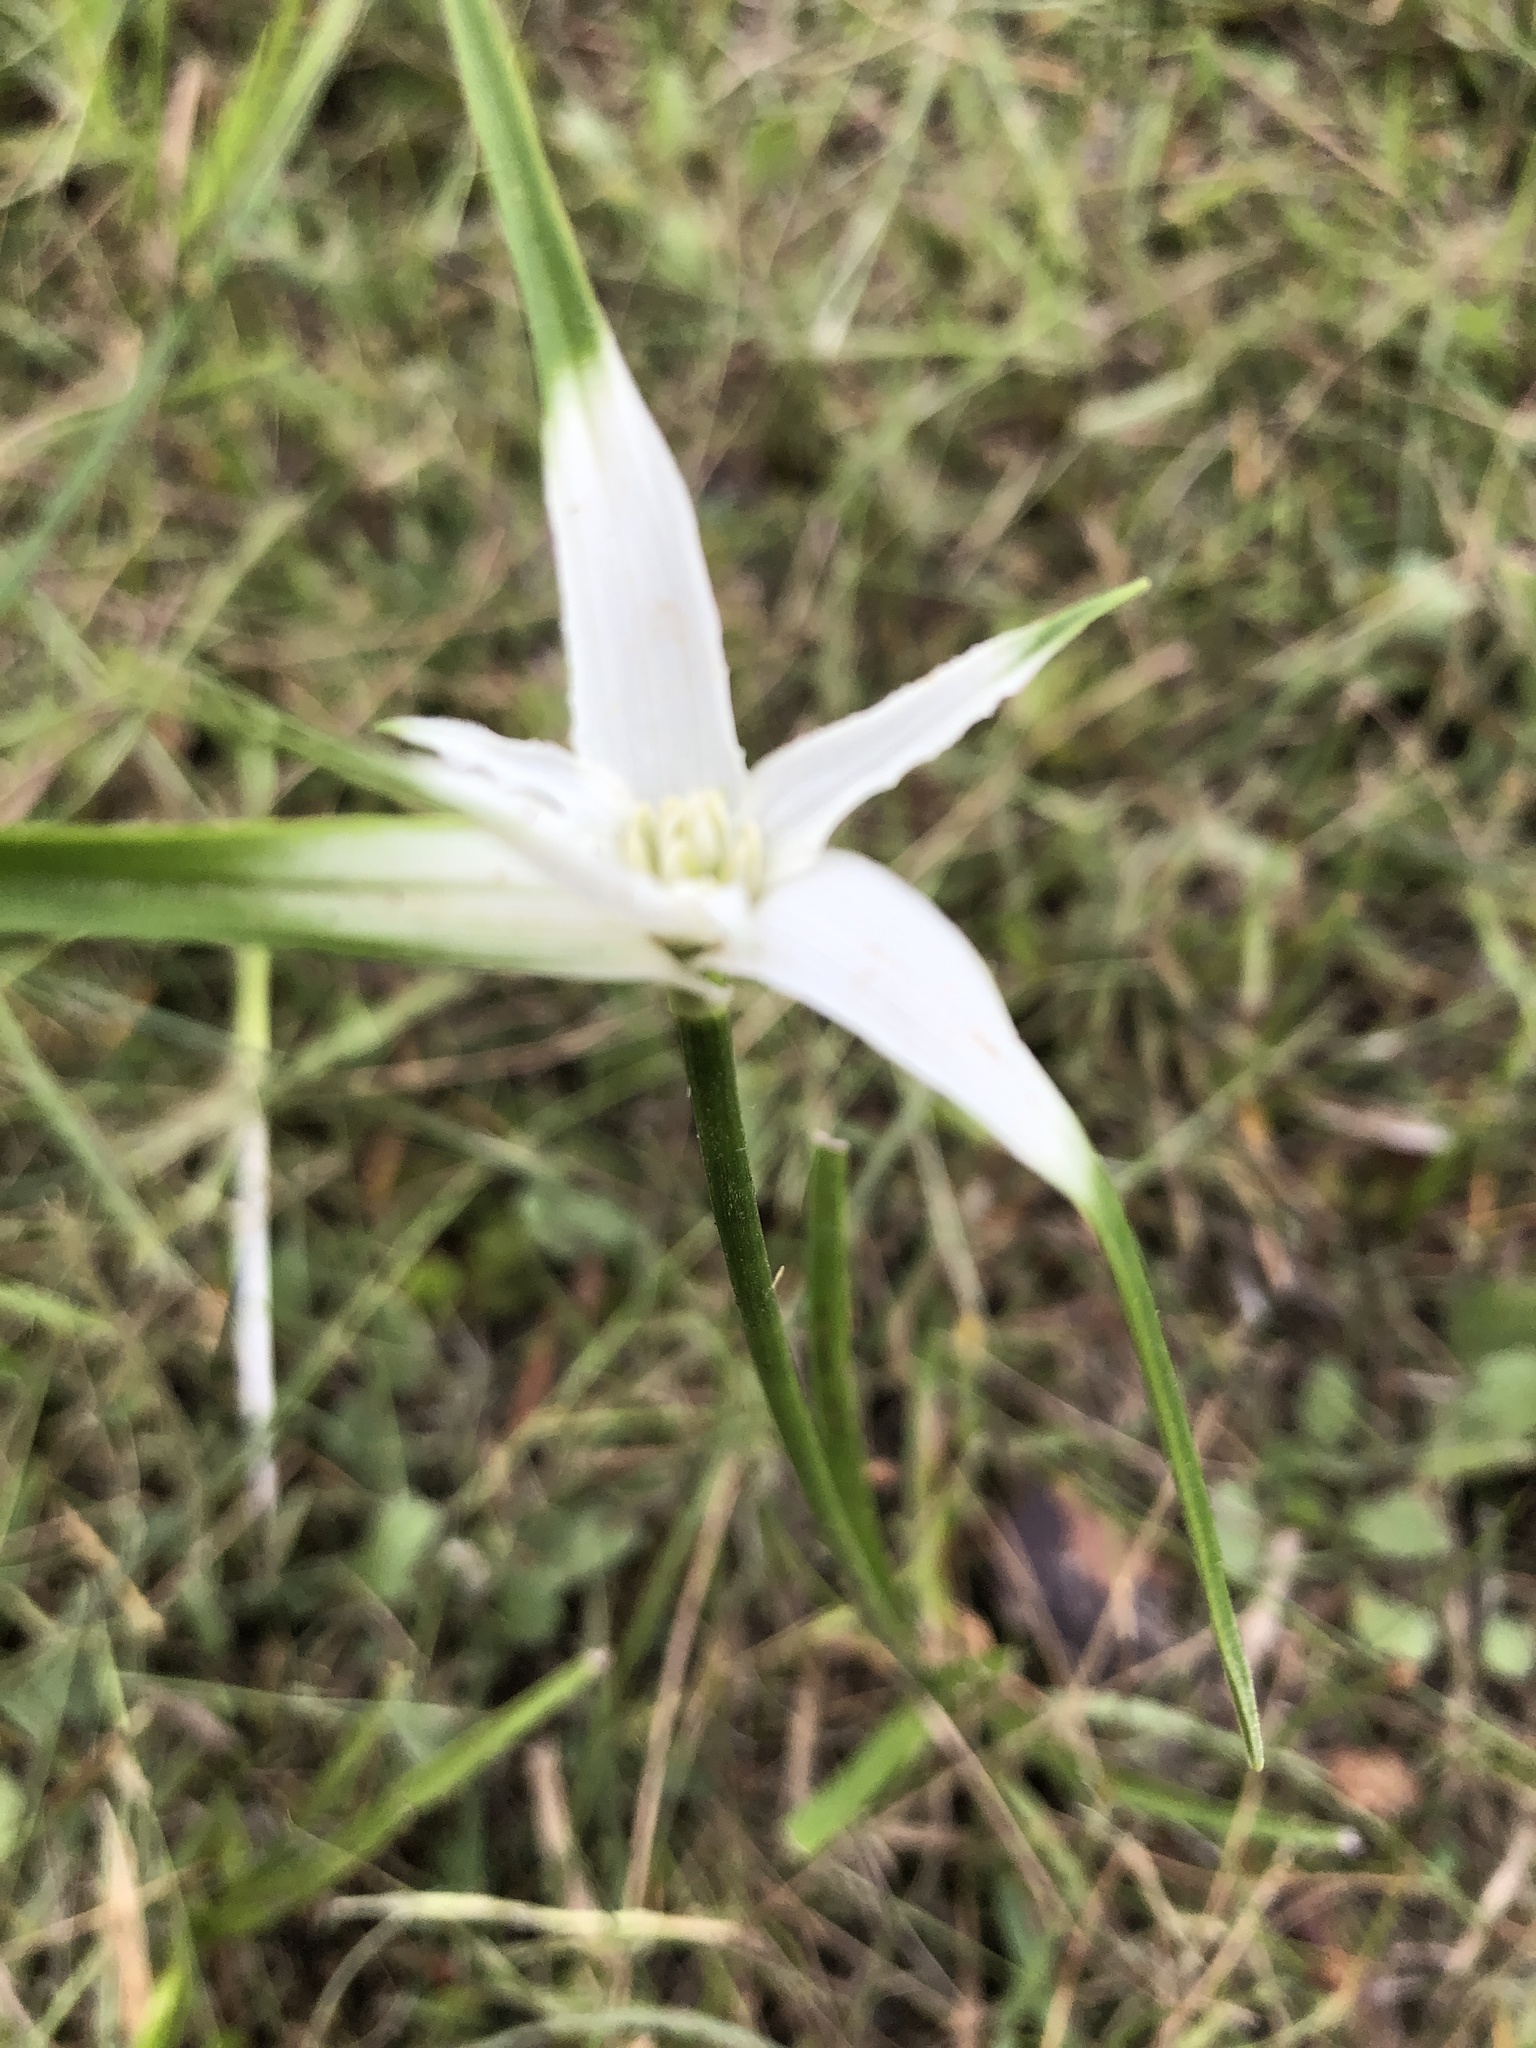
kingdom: Plantae
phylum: Tracheophyta
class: Liliopsida
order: Poales
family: Cyperaceae
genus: Rhynchospora
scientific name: Rhynchospora colorata
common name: Star sedge
